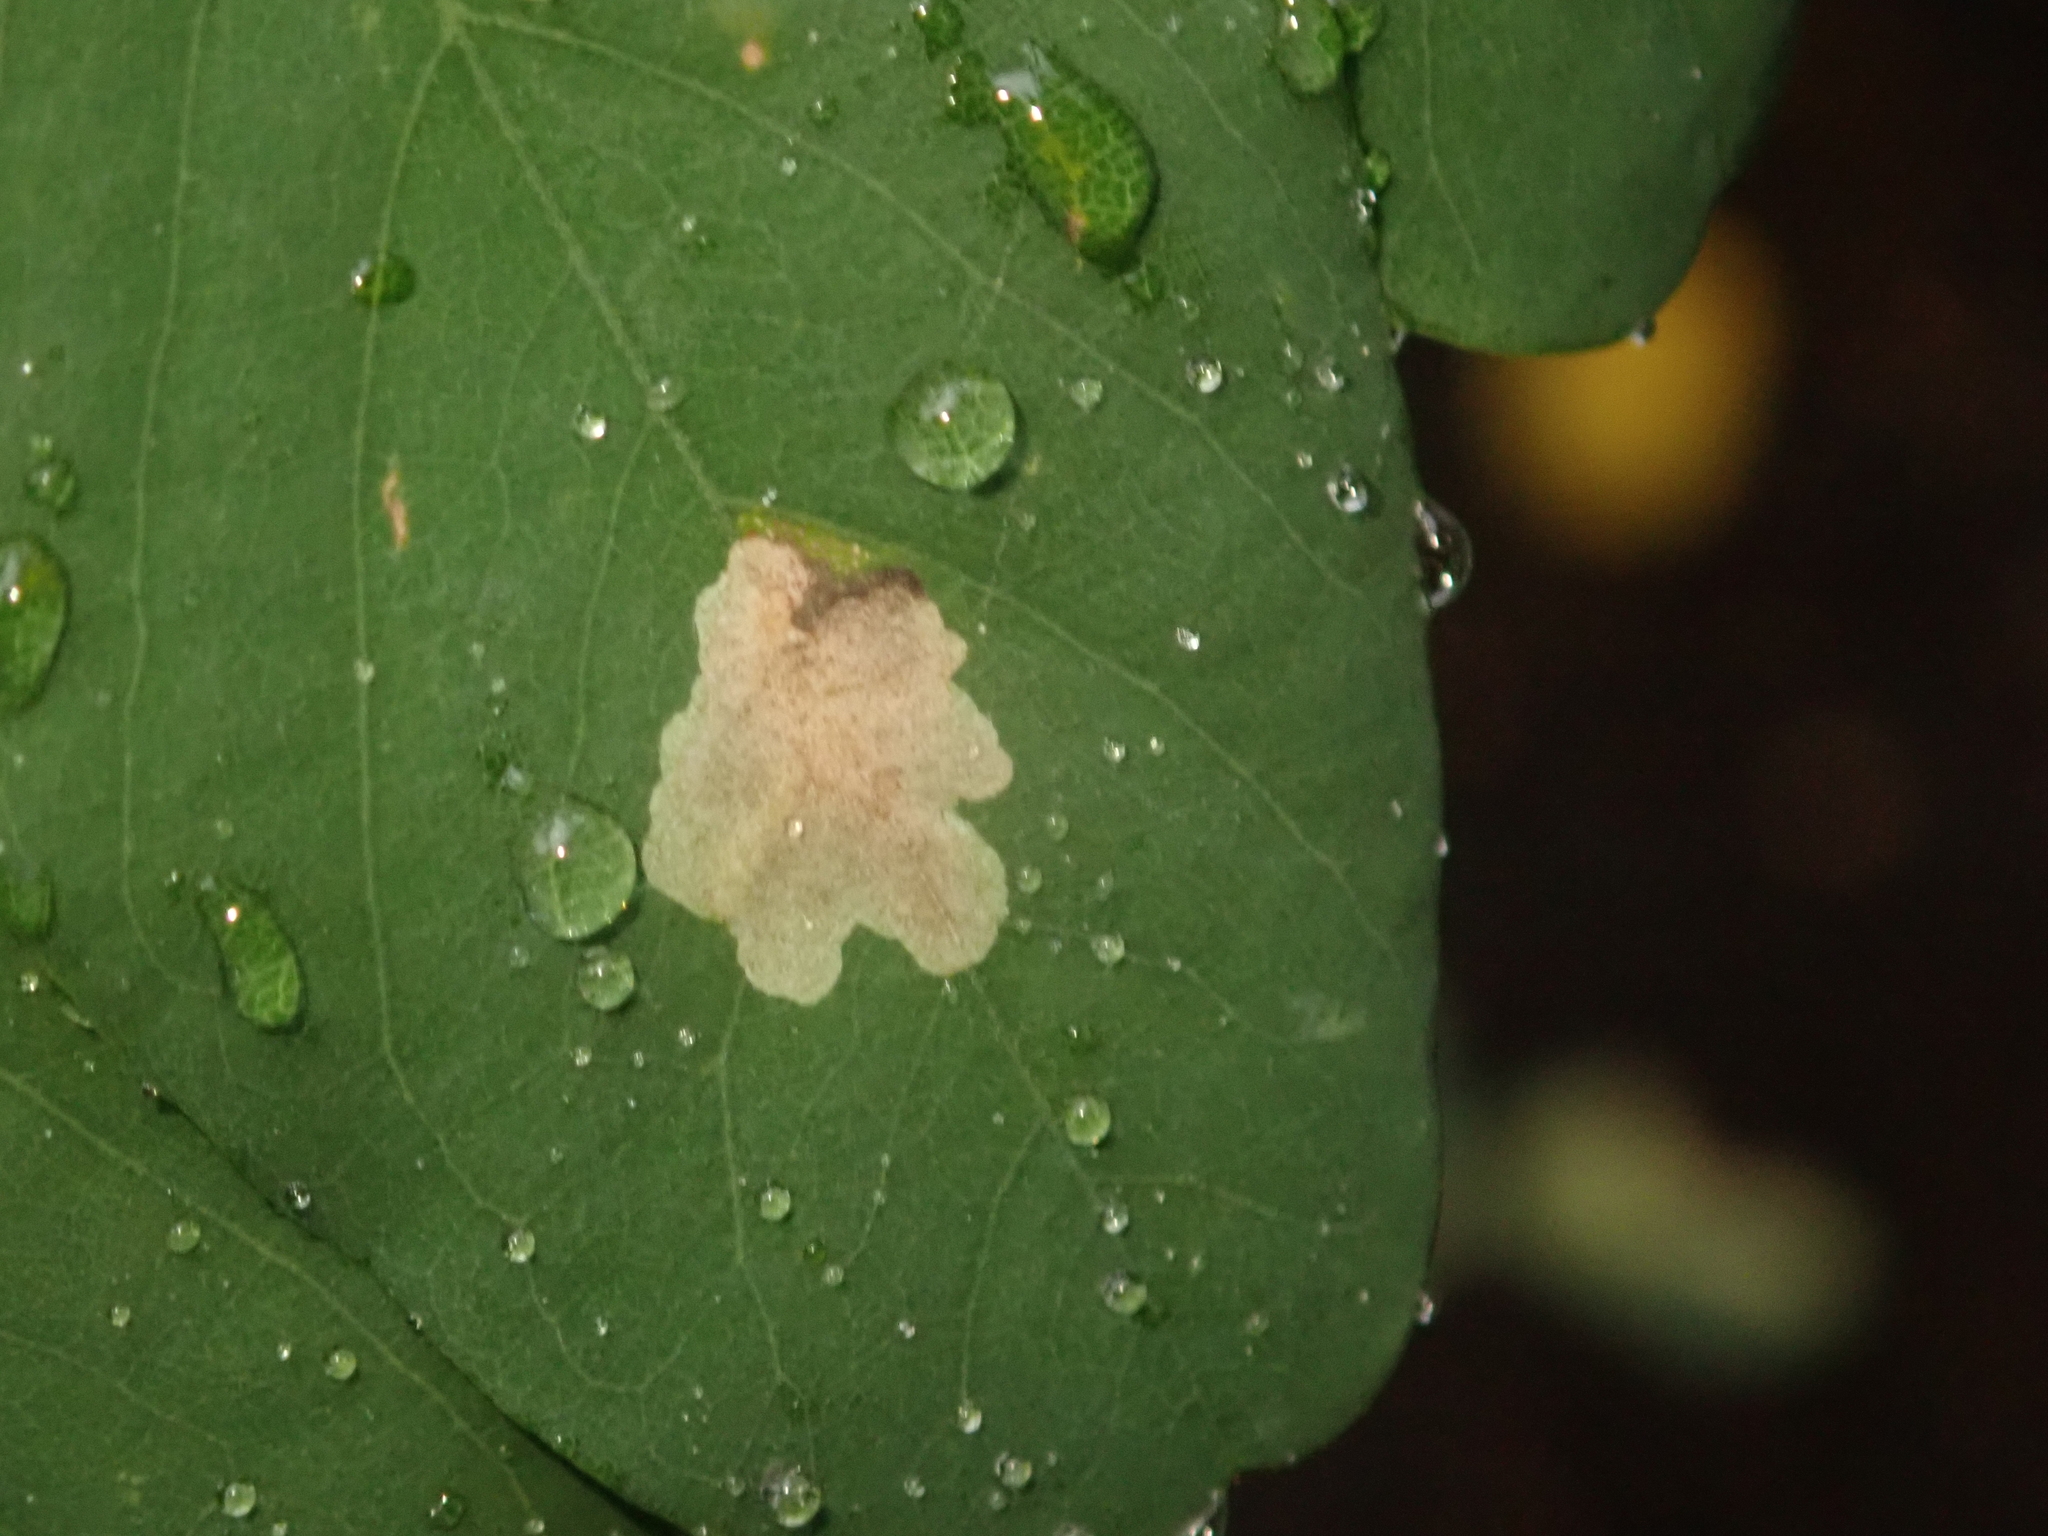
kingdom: Animalia
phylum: Arthropoda
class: Insecta
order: Lepidoptera
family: Gracillariidae
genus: Parectopa
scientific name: Parectopa robiniella
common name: Locust digitate leafminer
